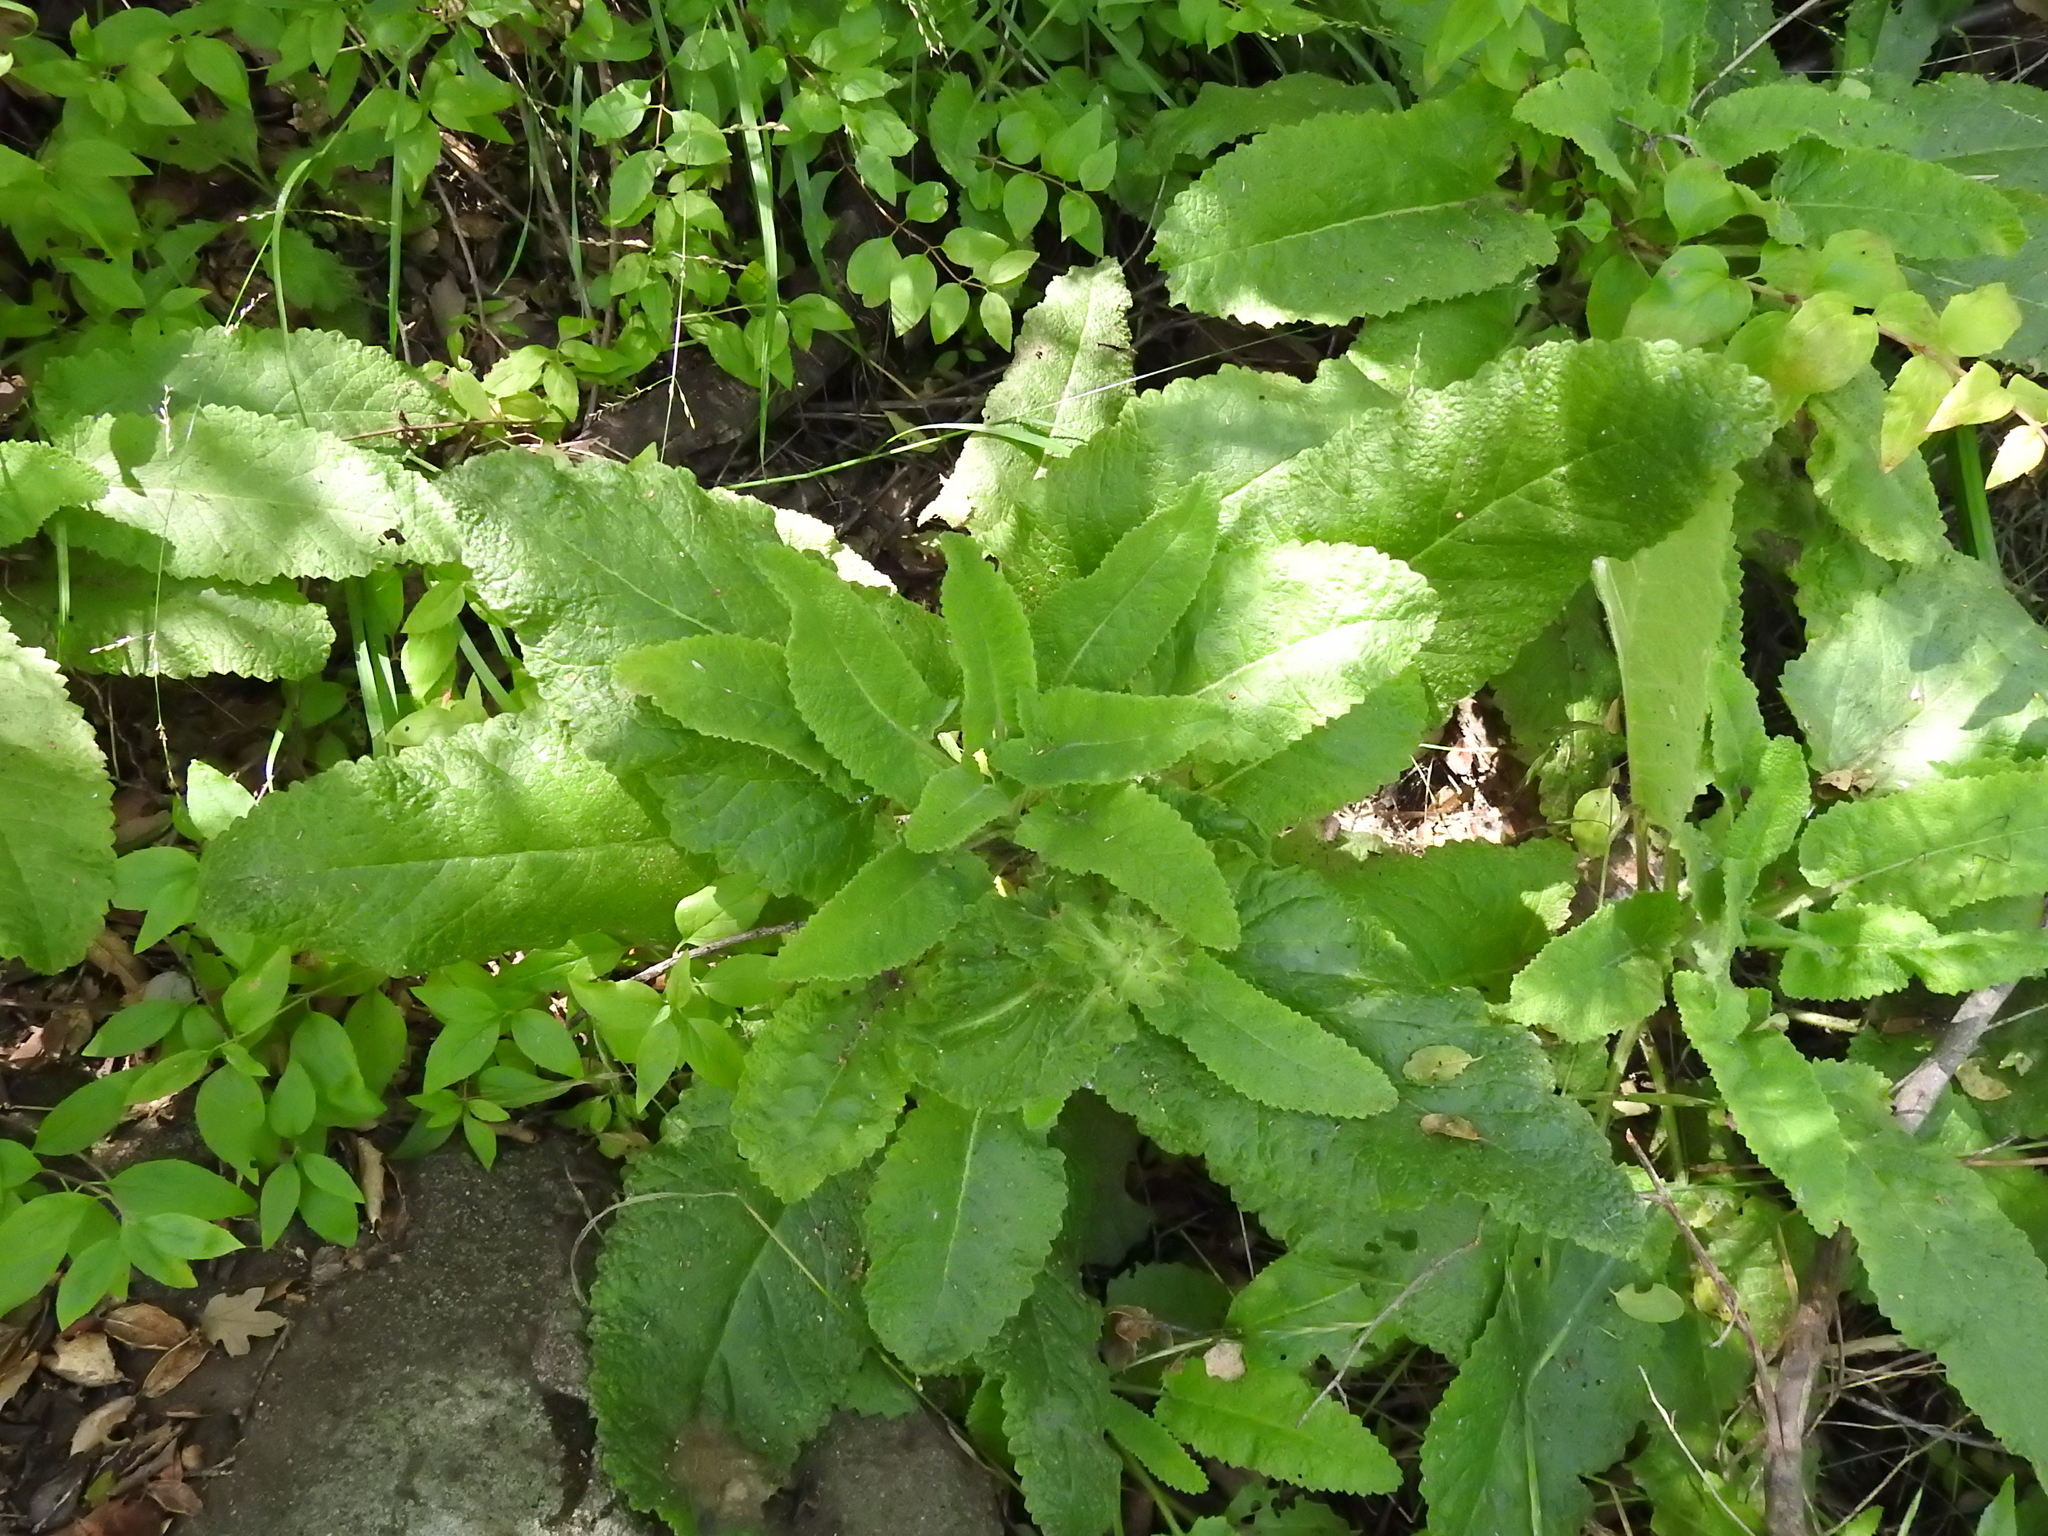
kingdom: Plantae
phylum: Tracheophyta
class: Magnoliopsida
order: Lamiales
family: Lamiaceae
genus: Salvia
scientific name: Salvia spathacea
